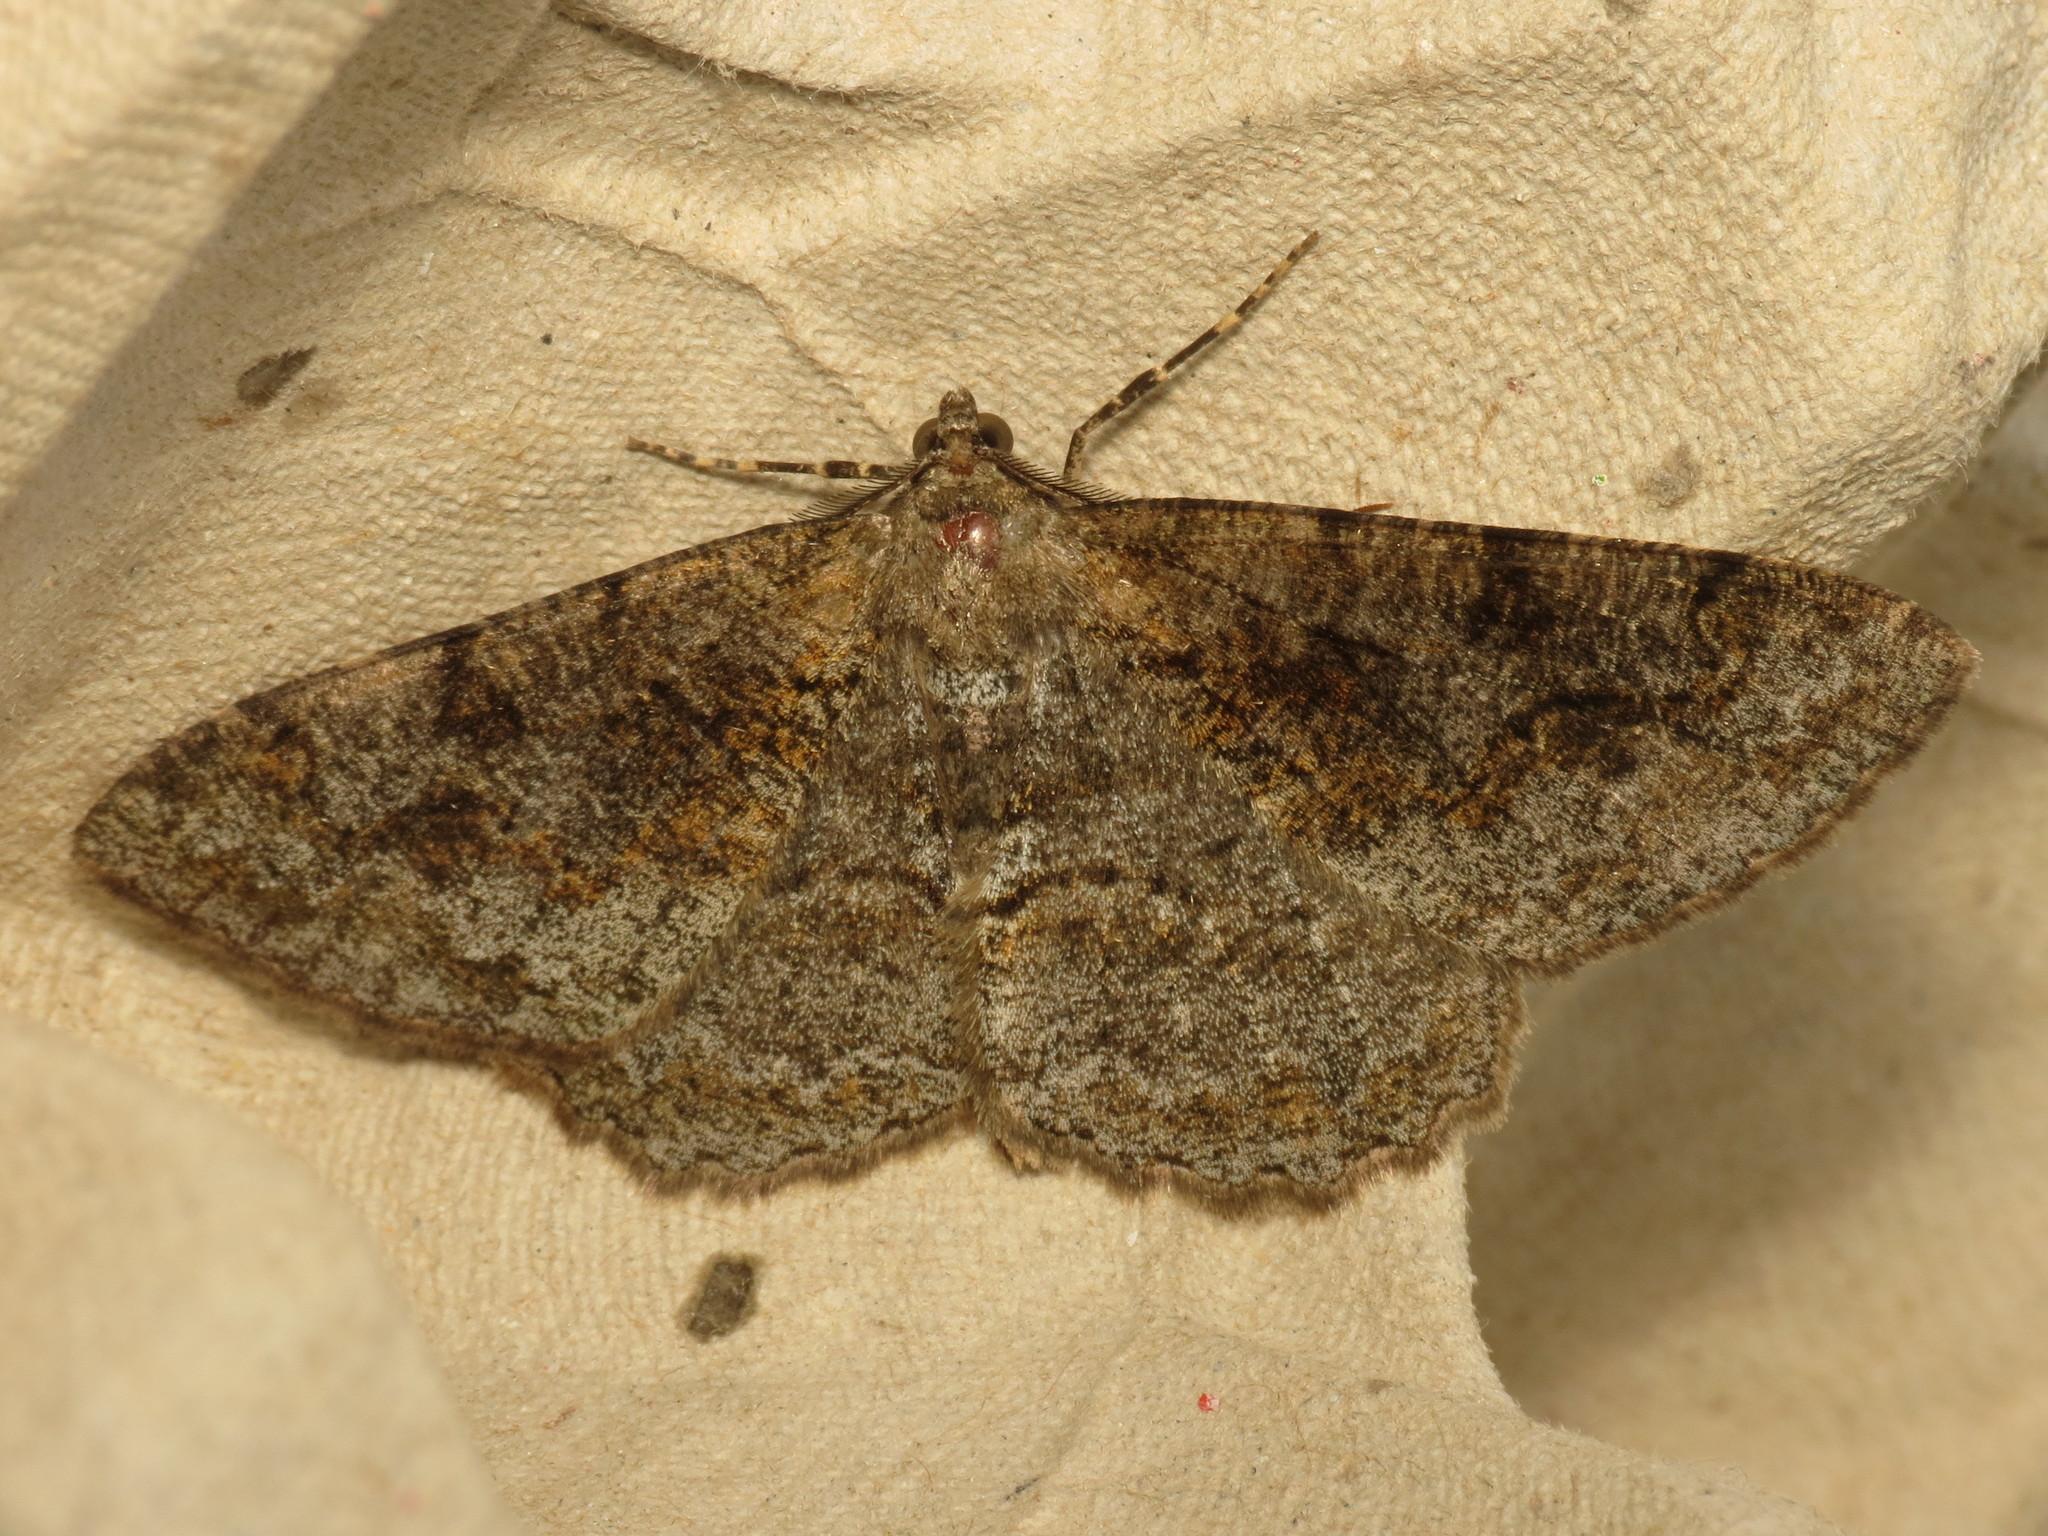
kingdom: Animalia
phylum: Arthropoda
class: Insecta
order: Lepidoptera
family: Geometridae
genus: Alcis
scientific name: Alcis repandata
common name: Mottled beauty
